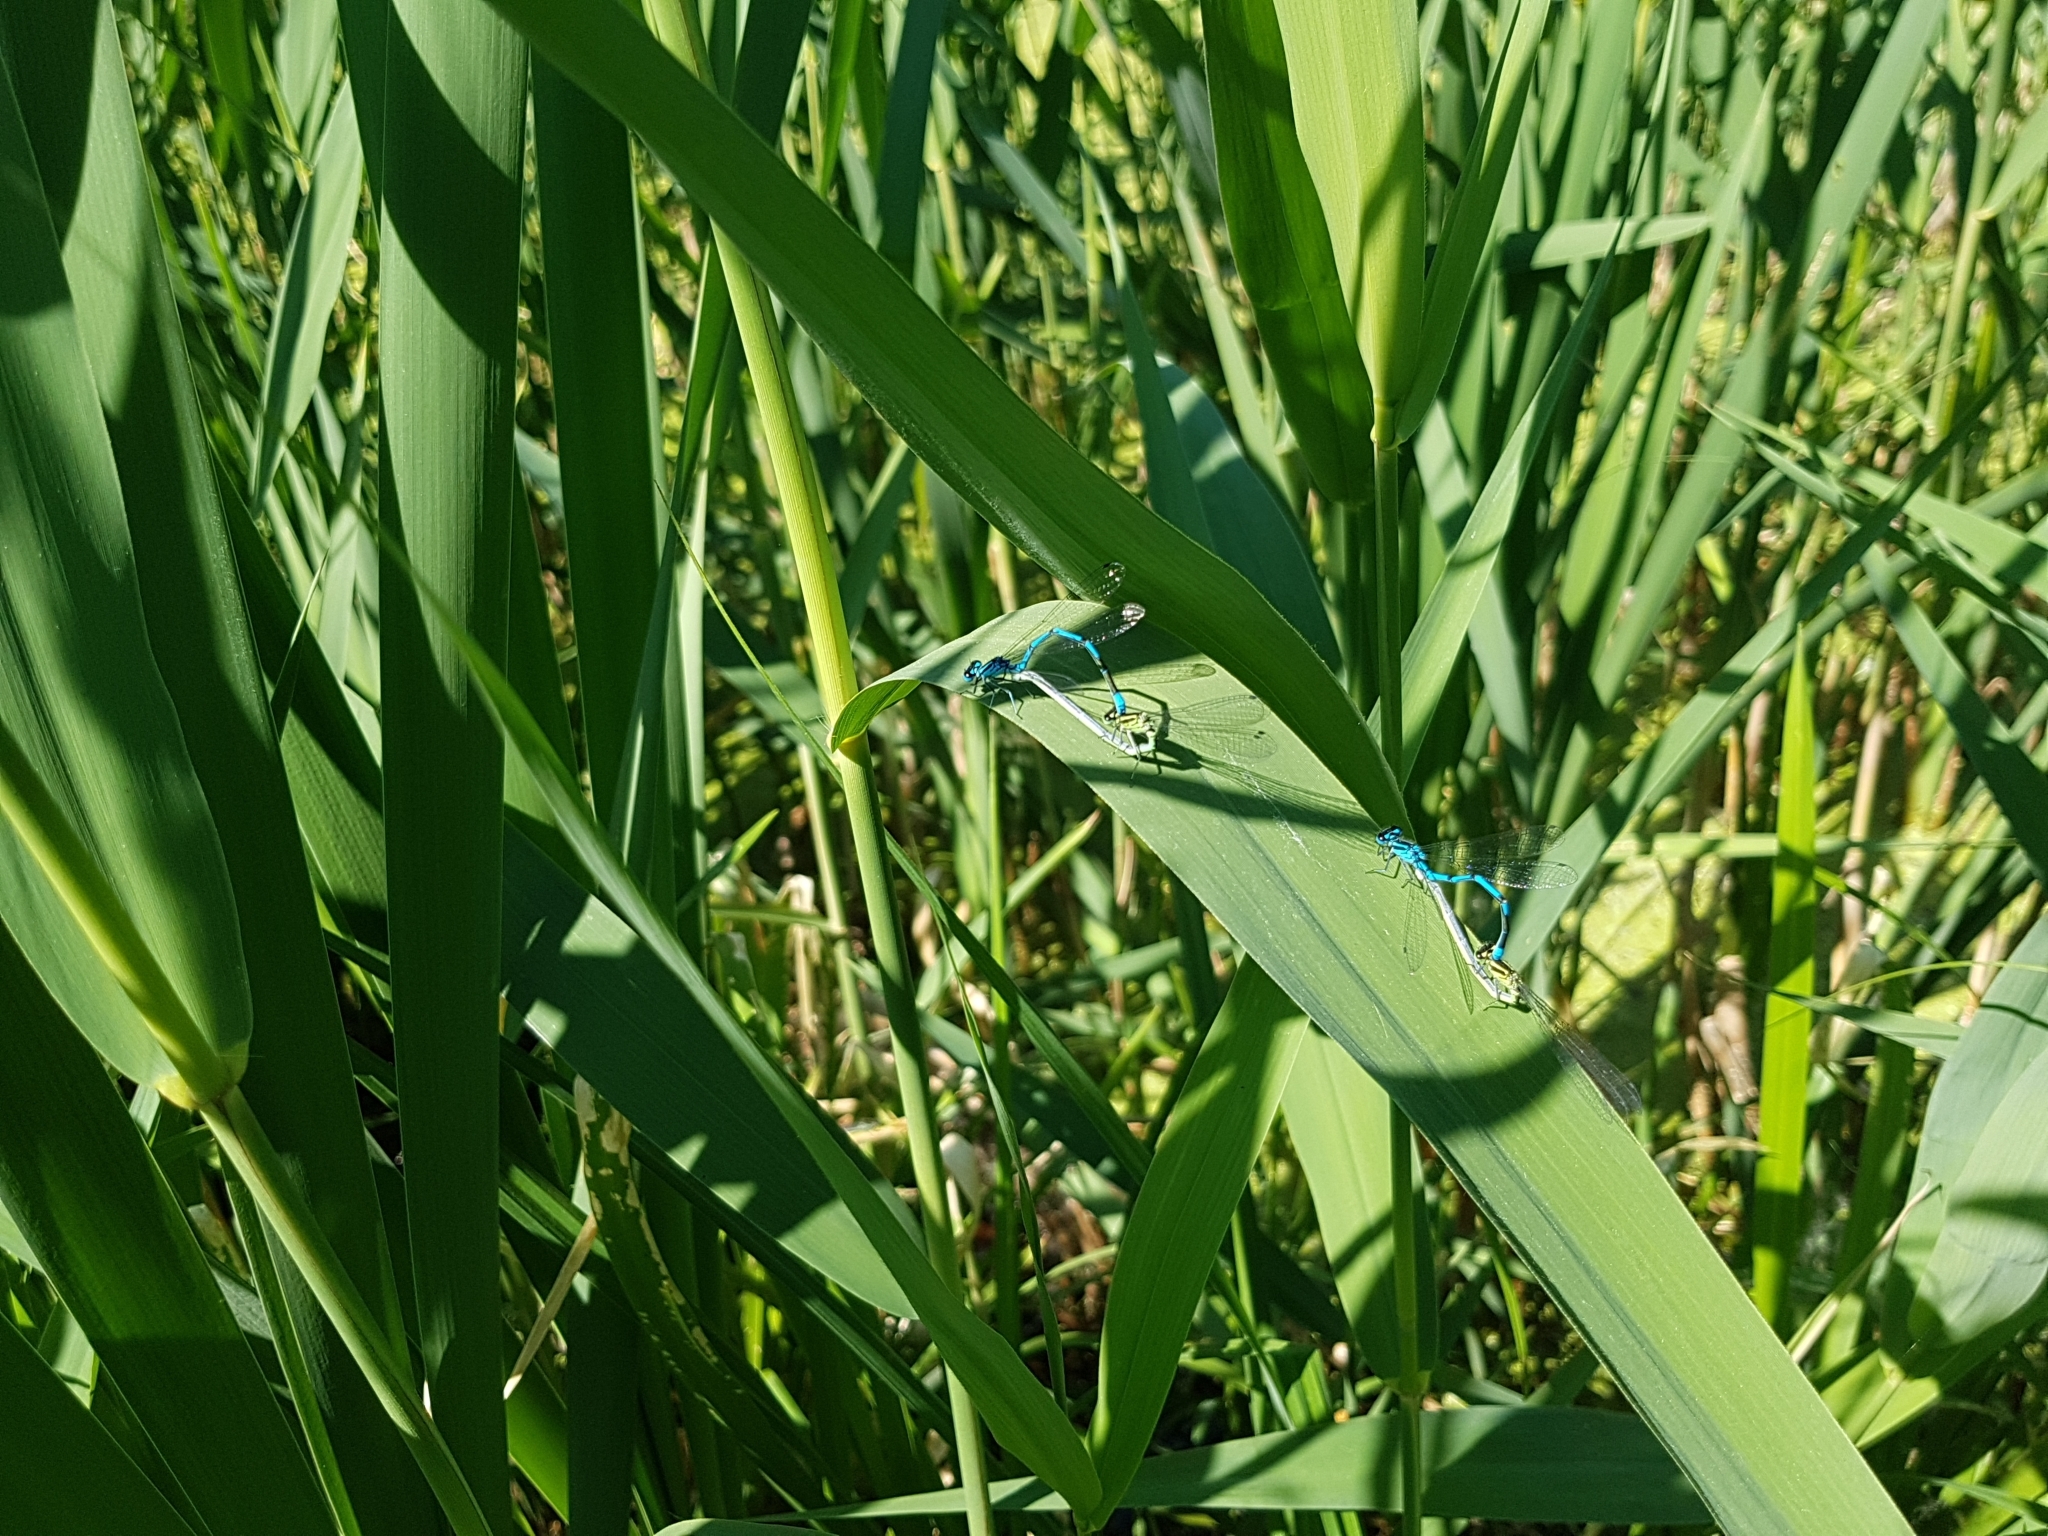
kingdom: Animalia
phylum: Arthropoda
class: Insecta
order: Odonata
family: Coenagrionidae
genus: Coenagrion
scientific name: Coenagrion puella
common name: Azure damselfly
